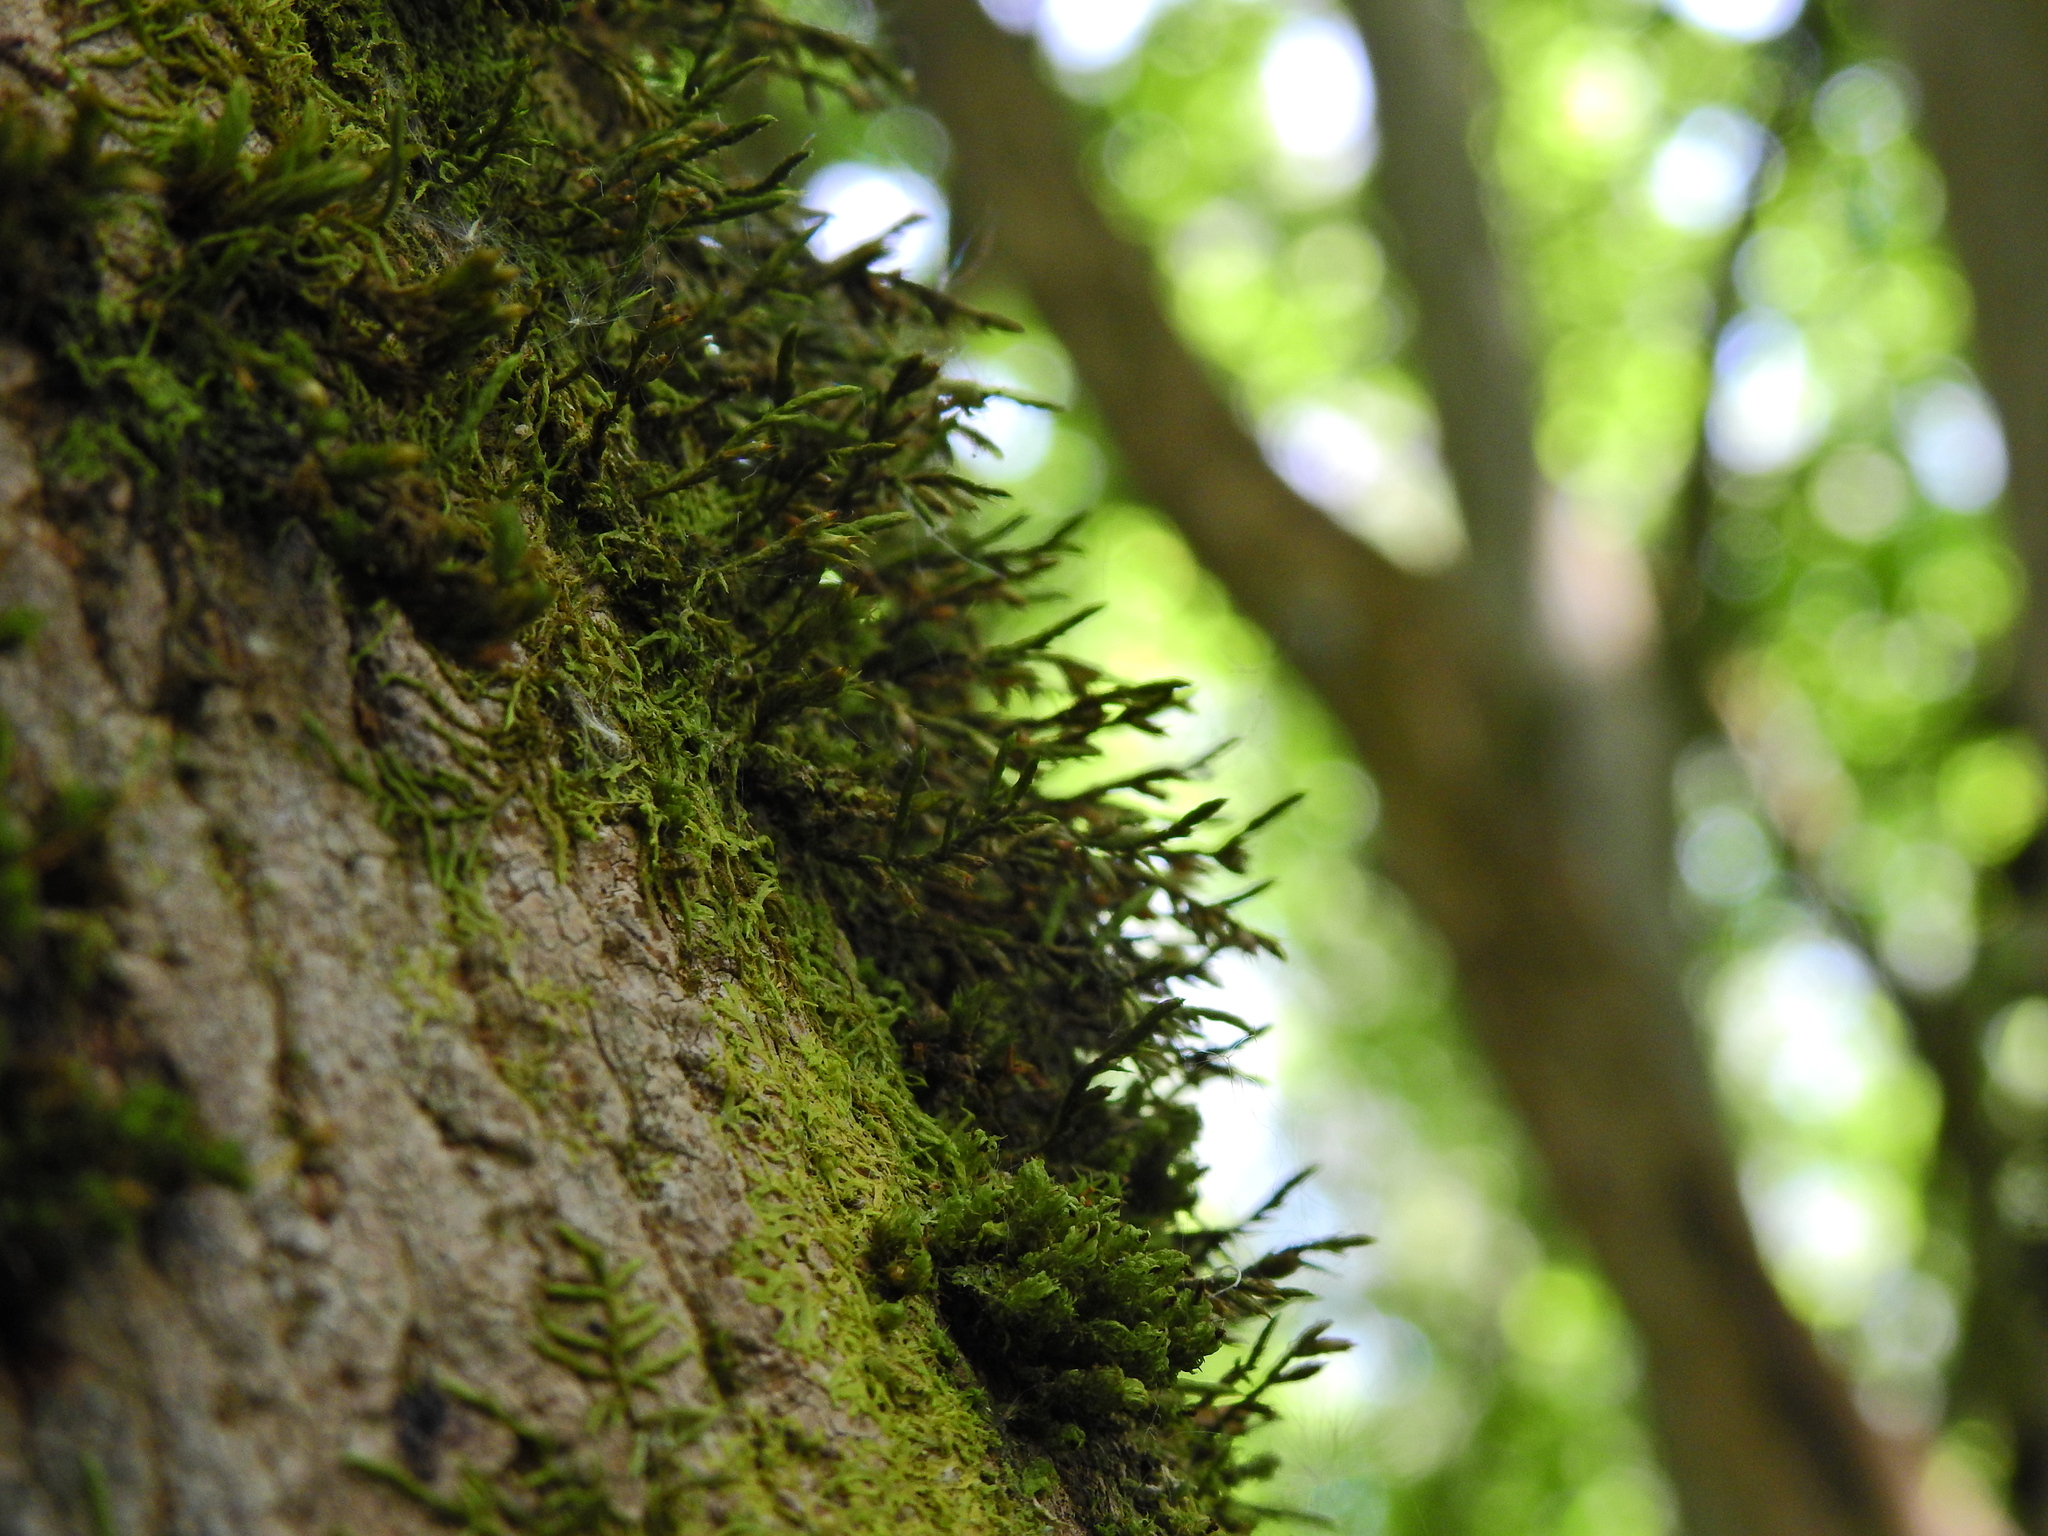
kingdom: Plantae
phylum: Bryophyta
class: Bryopsida
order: Hypnales
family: Cryphaeaceae
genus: Cryphaea
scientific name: Cryphaea heteromalla
